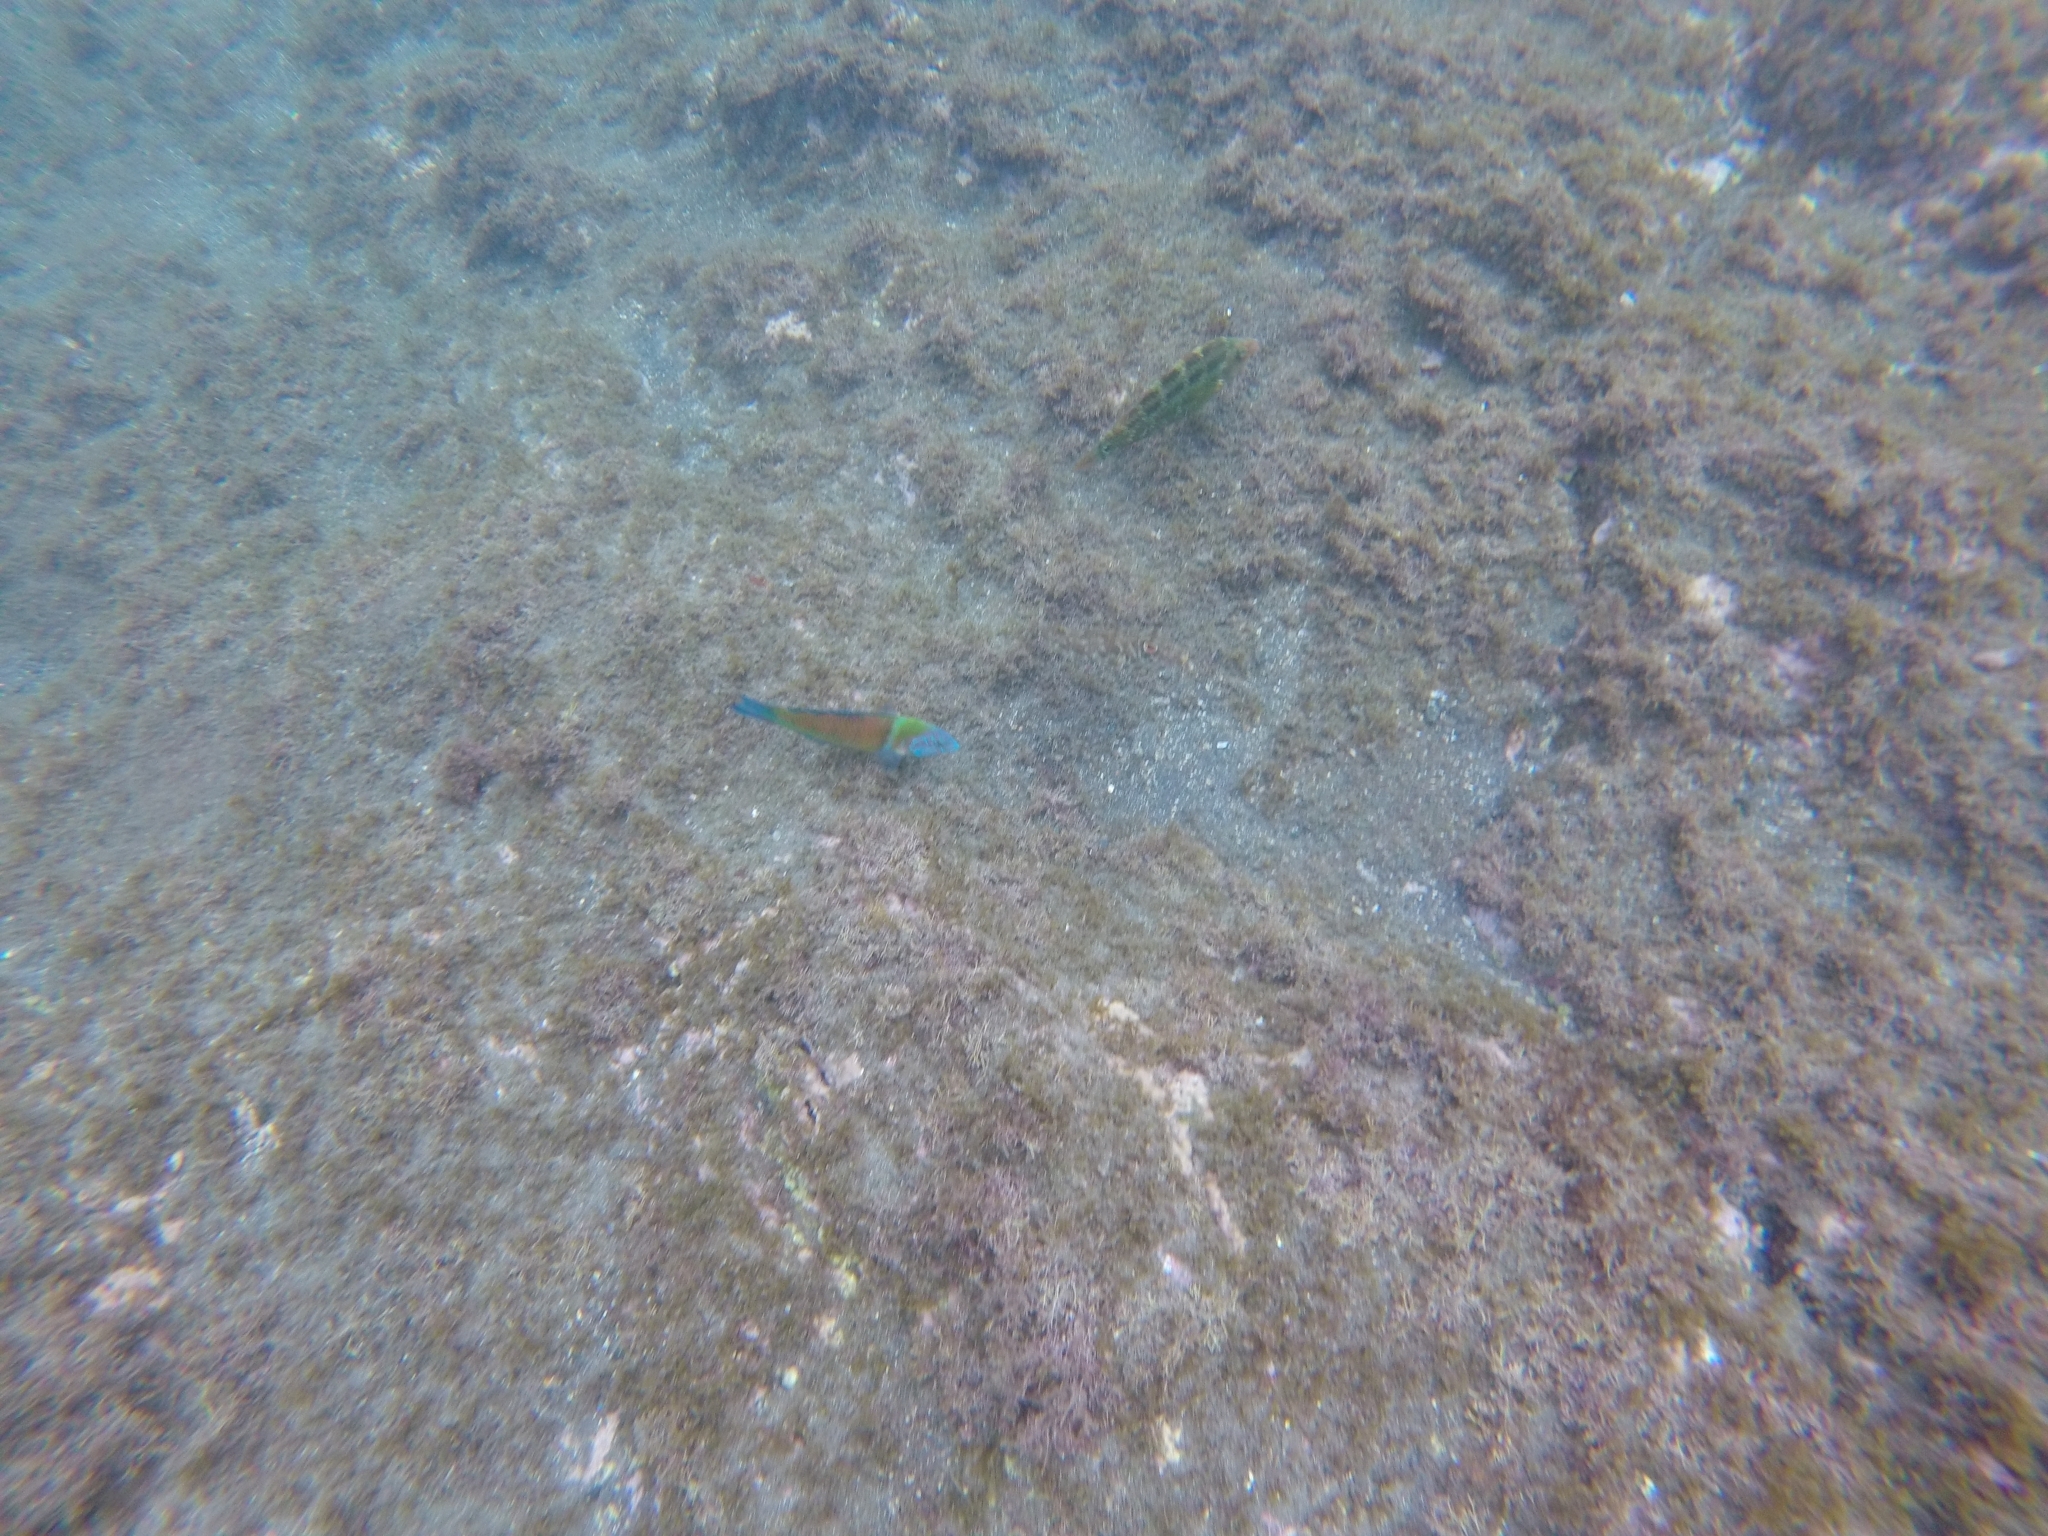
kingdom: Animalia
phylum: Chordata
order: Perciformes
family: Labridae
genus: Symphodus
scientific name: Symphodus trutta
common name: Emerald wrasse
